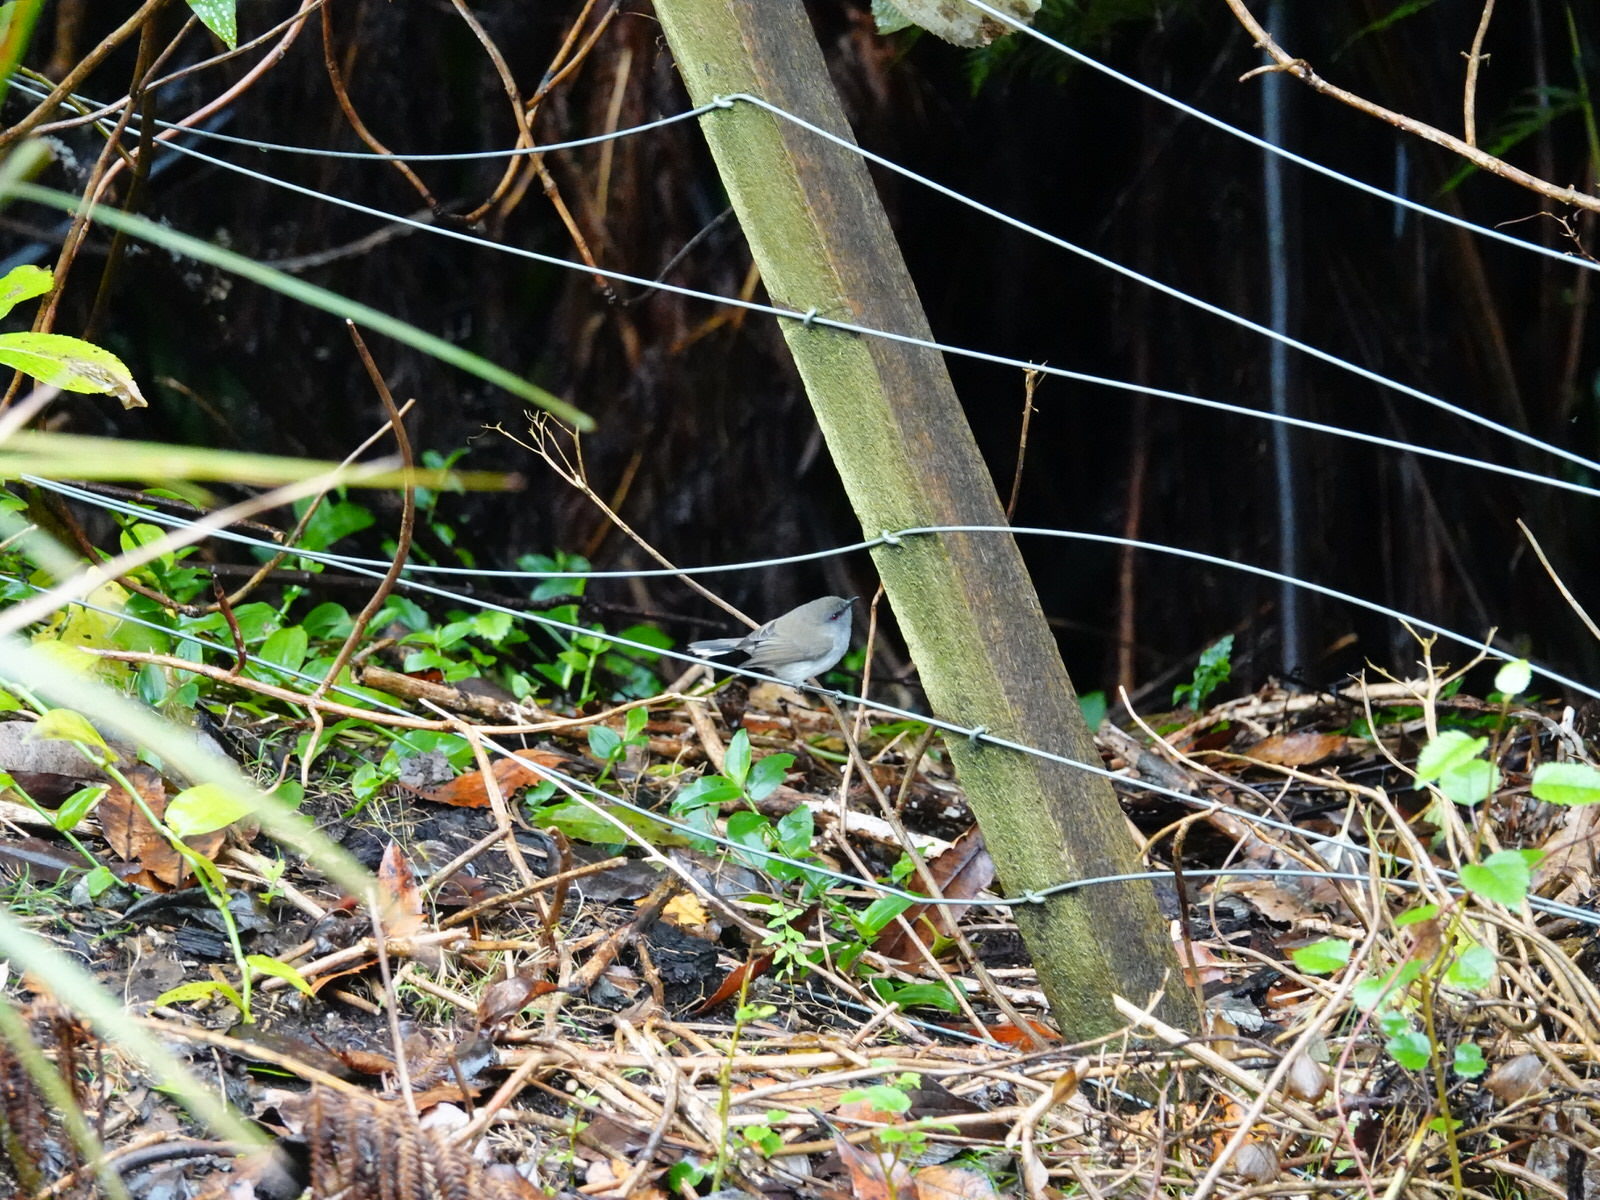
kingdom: Animalia
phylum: Chordata
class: Aves
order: Passeriformes
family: Acanthizidae
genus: Gerygone
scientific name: Gerygone igata
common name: Grey gerygone
